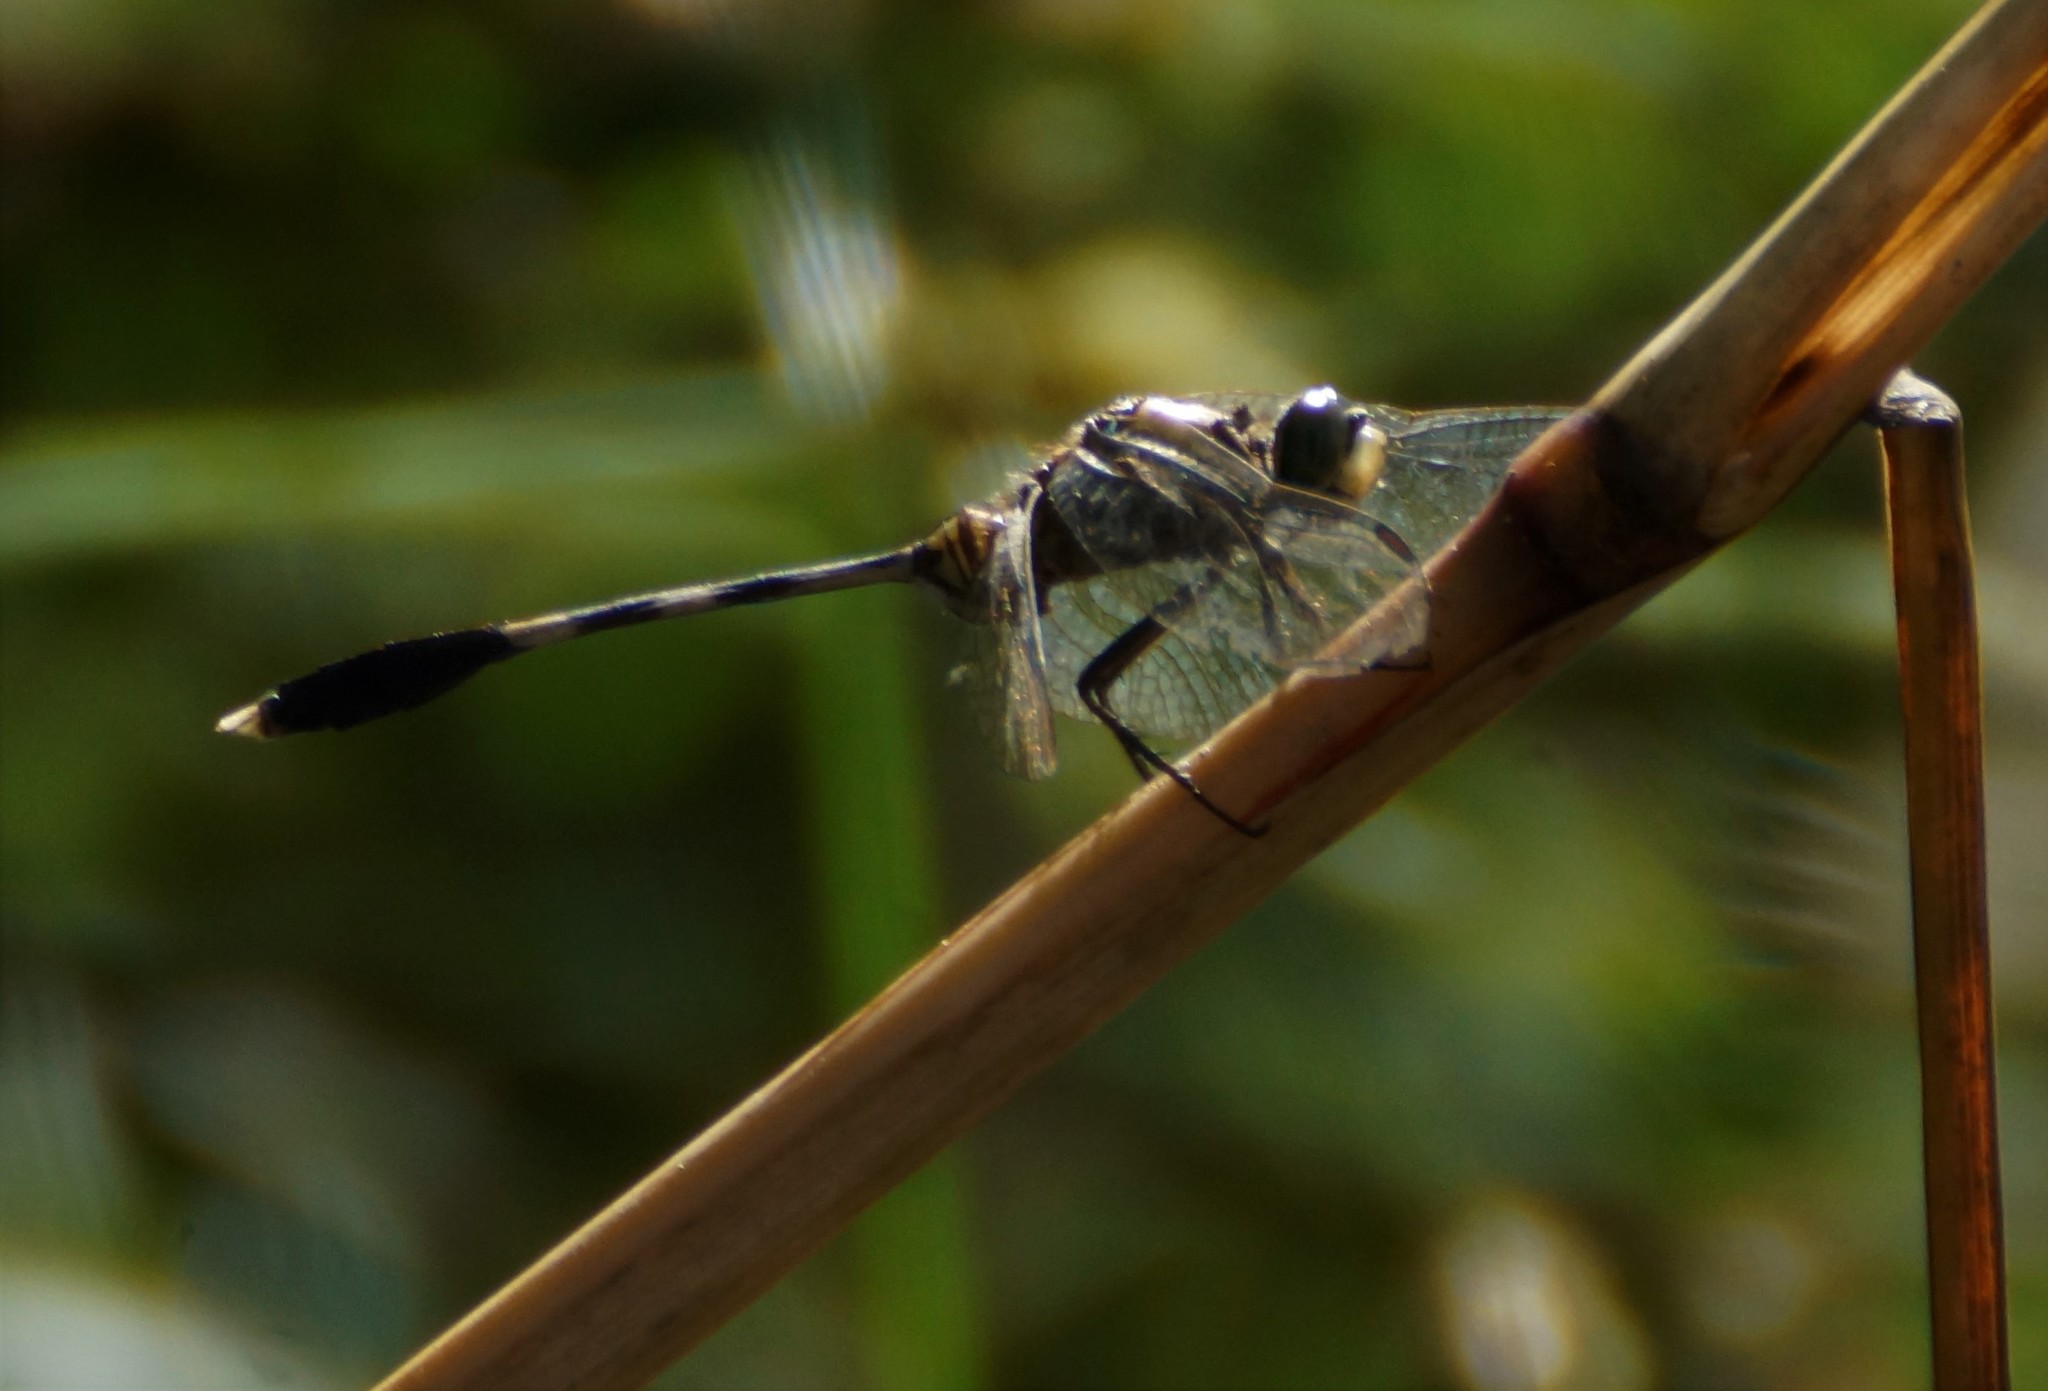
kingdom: Animalia
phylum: Arthropoda
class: Insecta
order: Odonata
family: Libellulidae
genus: Orthetrum
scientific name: Orthetrum sabina
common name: Slender skimmer
